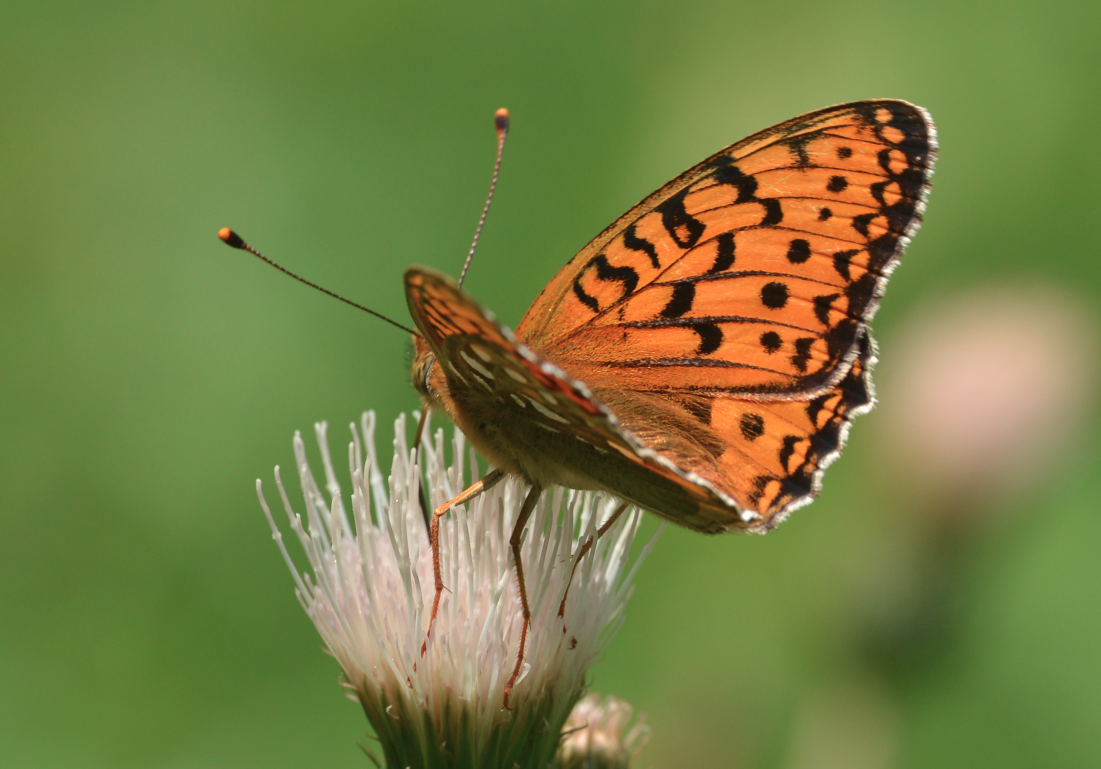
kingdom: Animalia
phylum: Arthropoda
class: Insecta
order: Lepidoptera
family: Nymphalidae
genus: Speyeria
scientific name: Speyeria aglaja
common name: Dark green fritillary
